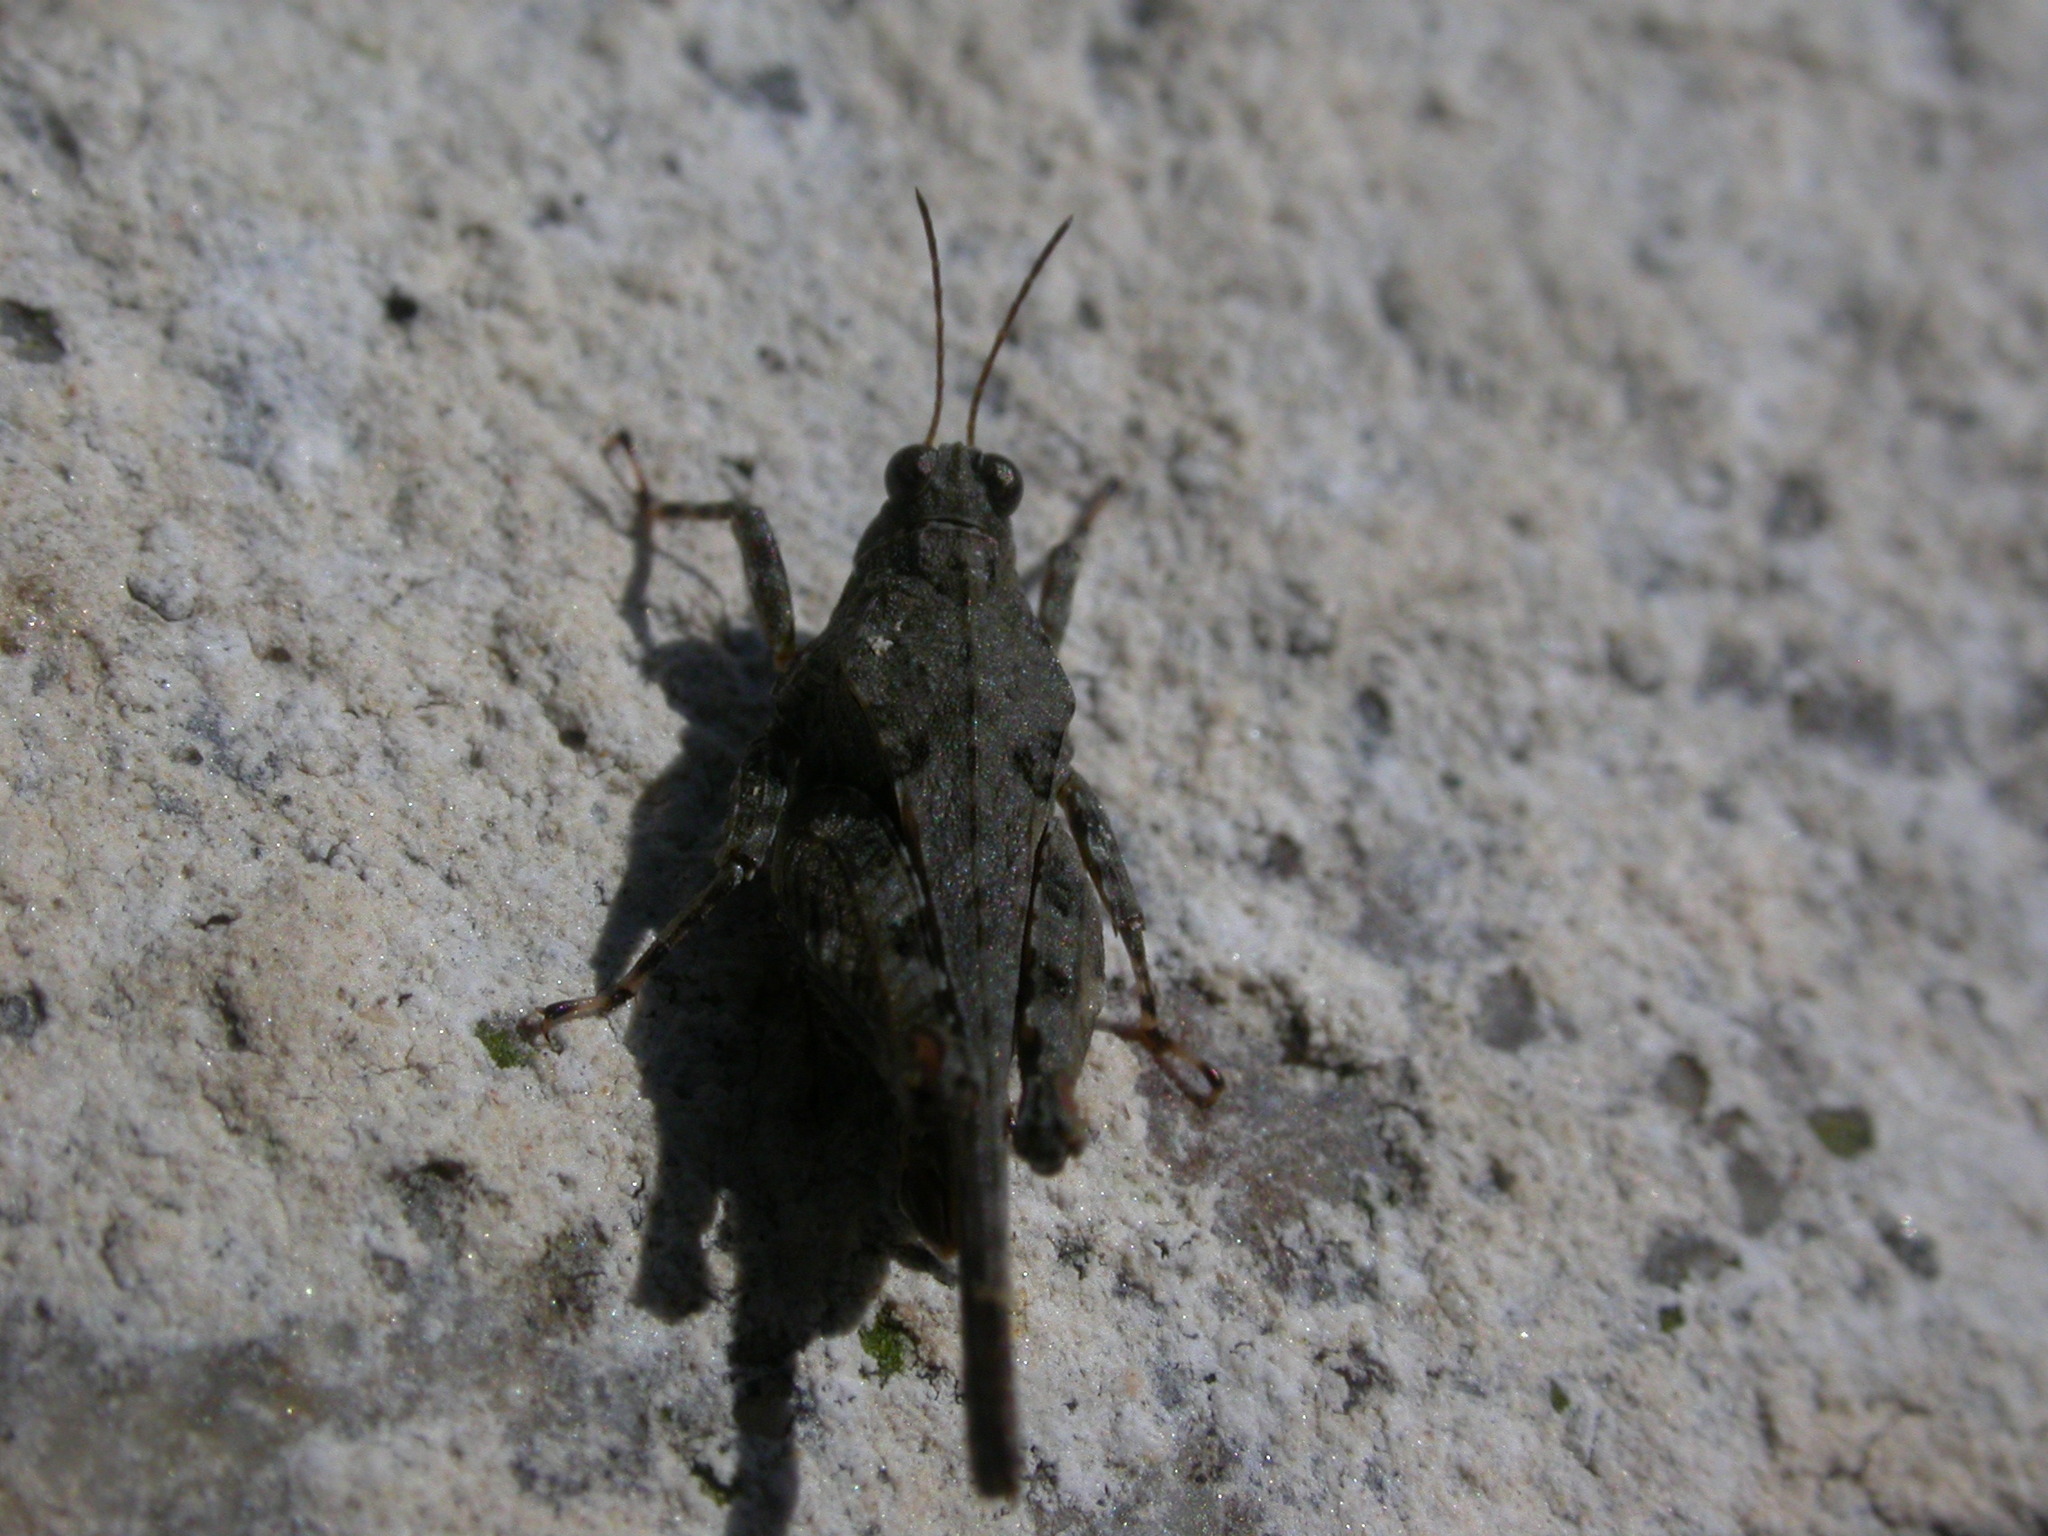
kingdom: Animalia
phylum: Arthropoda
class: Insecta
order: Orthoptera
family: Tetrigidae
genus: Paratettix
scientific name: Paratettix meridionalis
